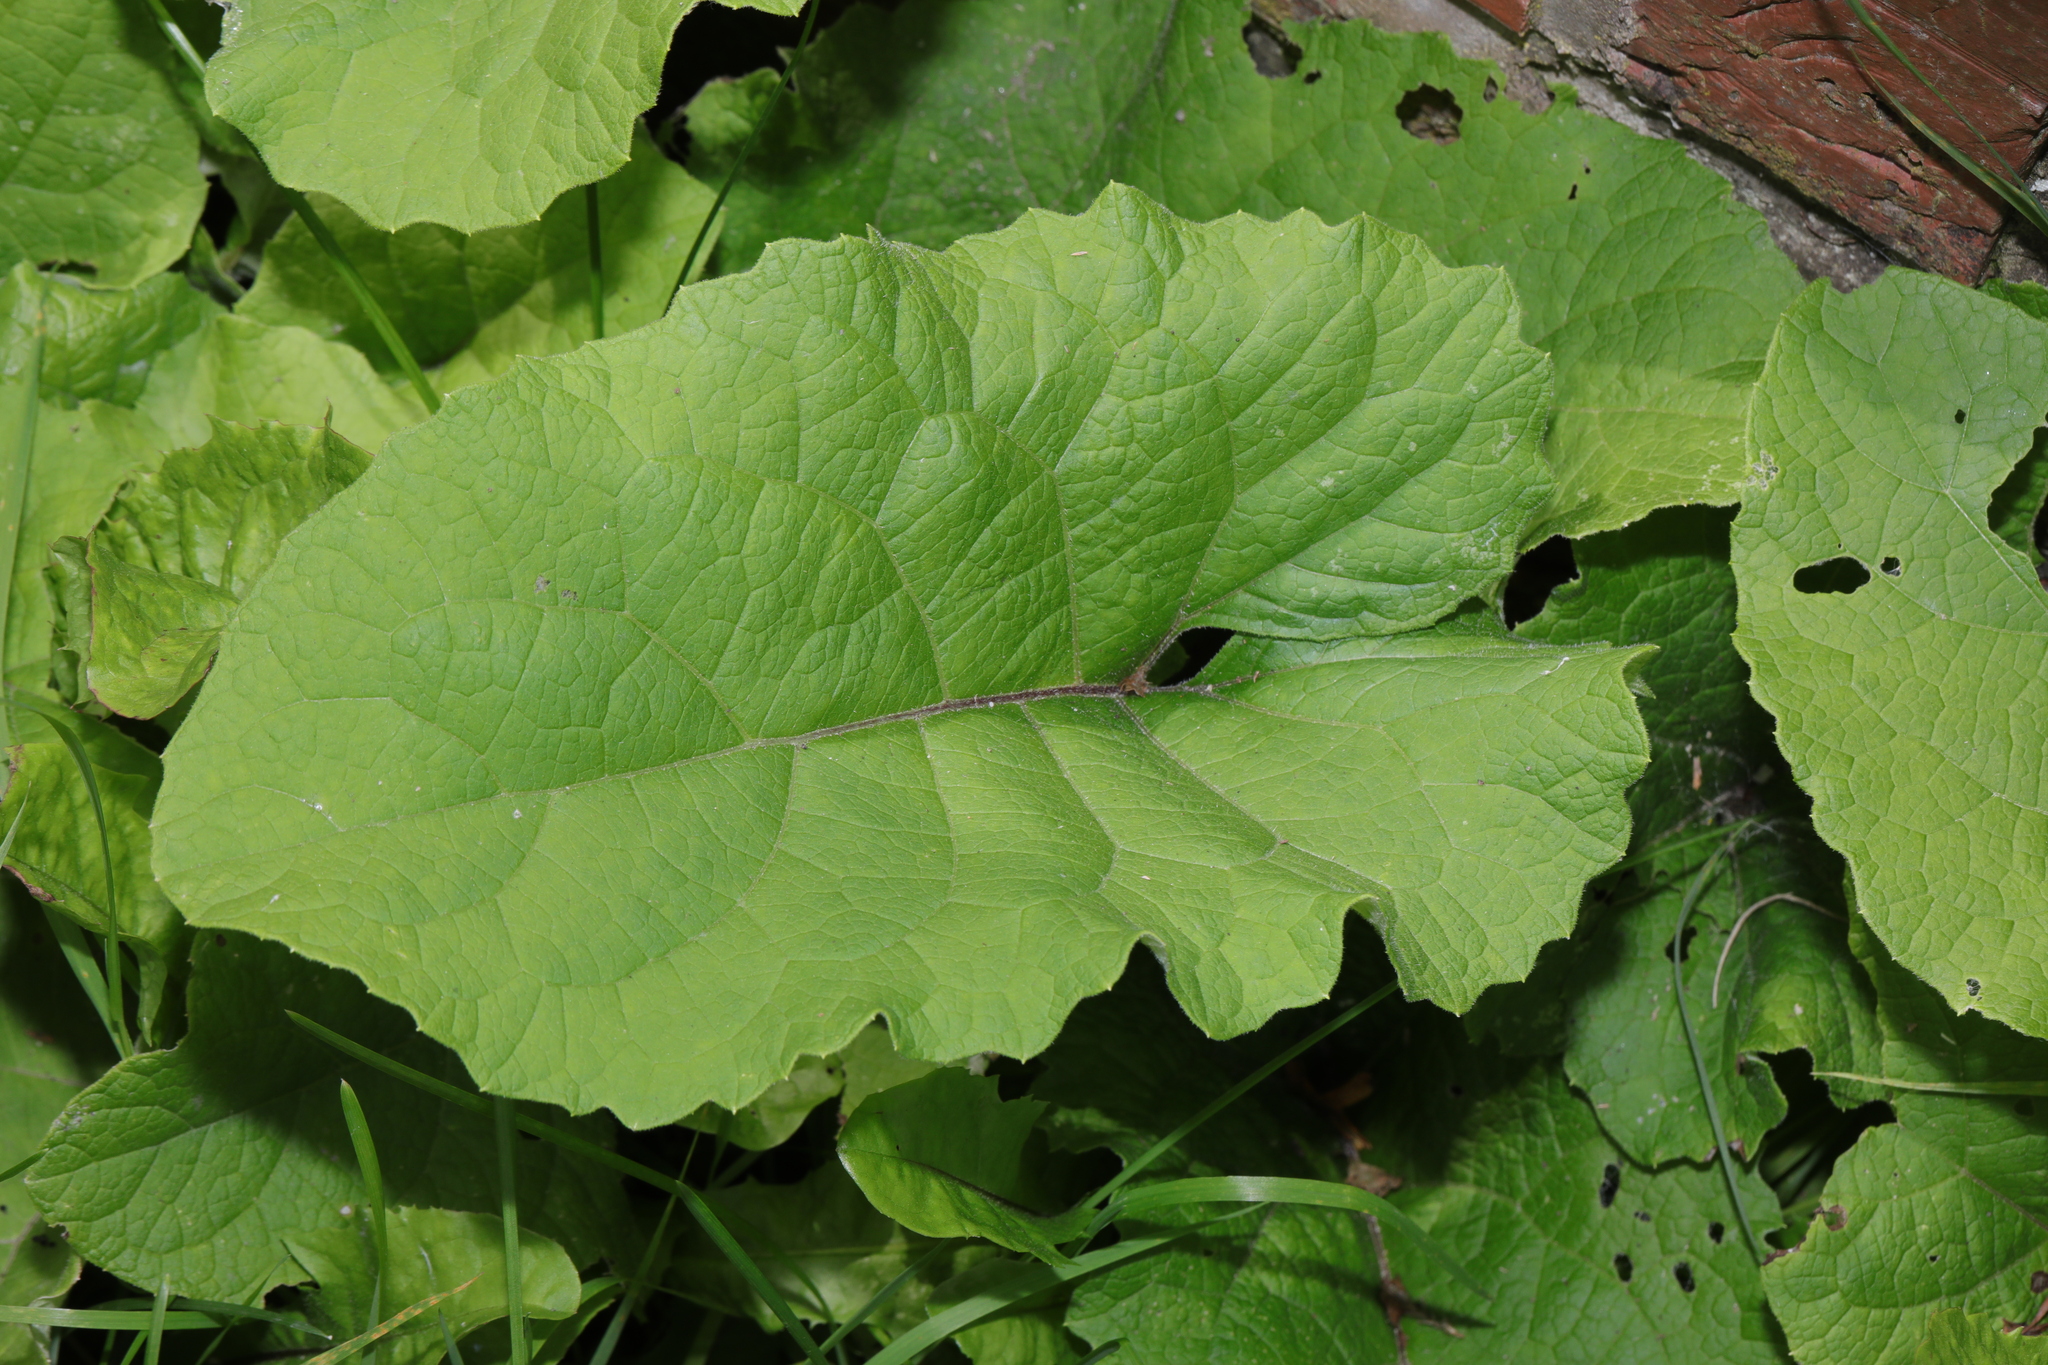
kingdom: Plantae
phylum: Tracheophyta
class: Magnoliopsida
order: Asterales
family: Asteraceae
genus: Arctium
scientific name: Arctium minus
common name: Lesser burdock
